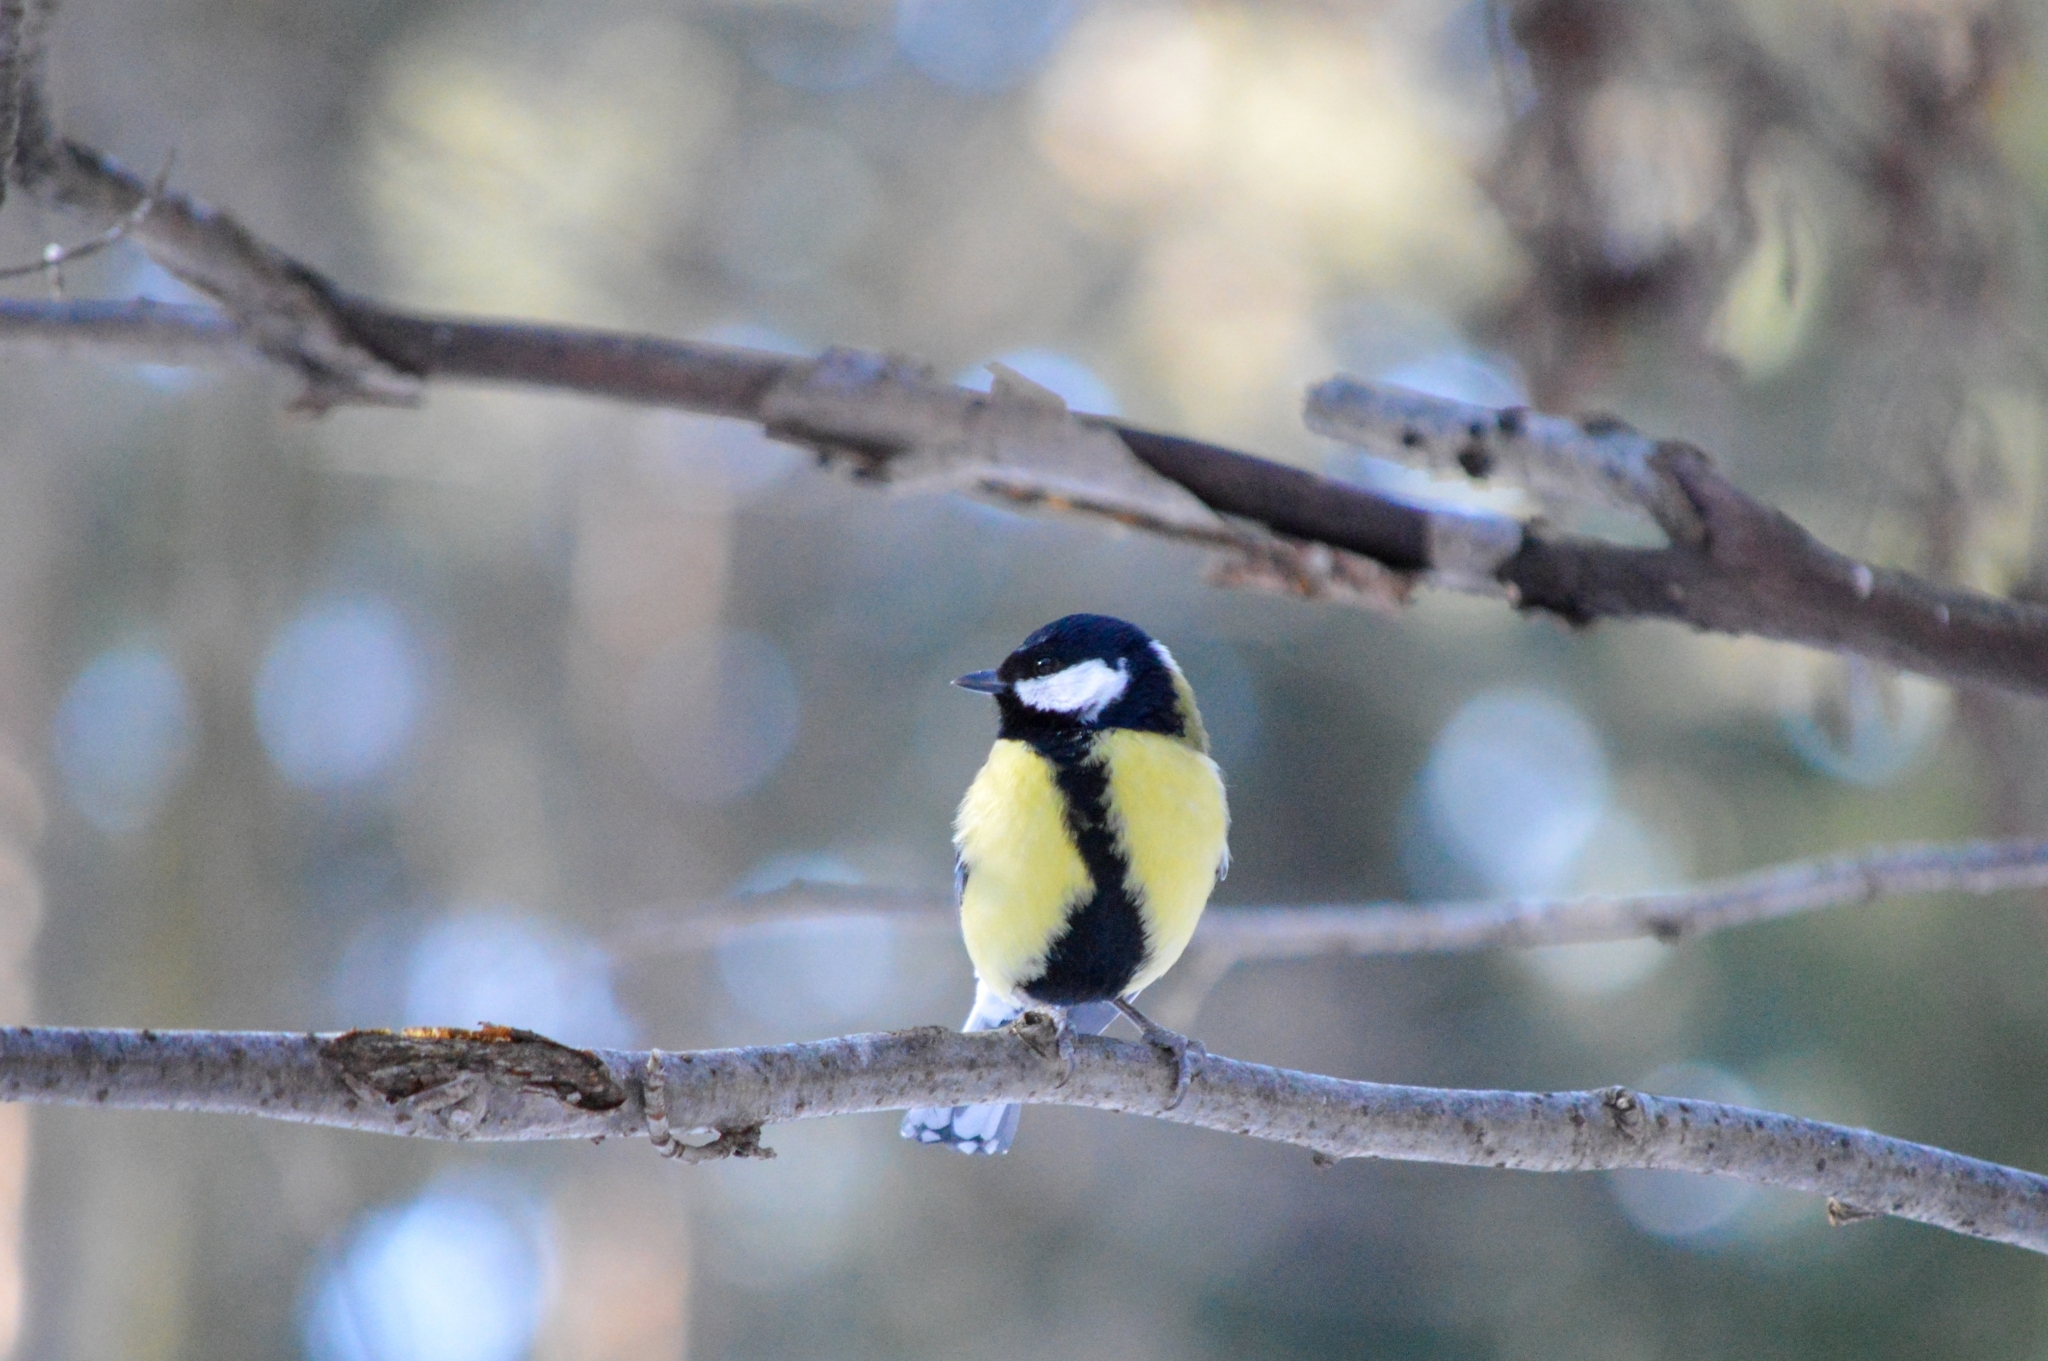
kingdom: Animalia
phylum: Chordata
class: Aves
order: Passeriformes
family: Paridae
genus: Parus
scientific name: Parus major
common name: Great tit
